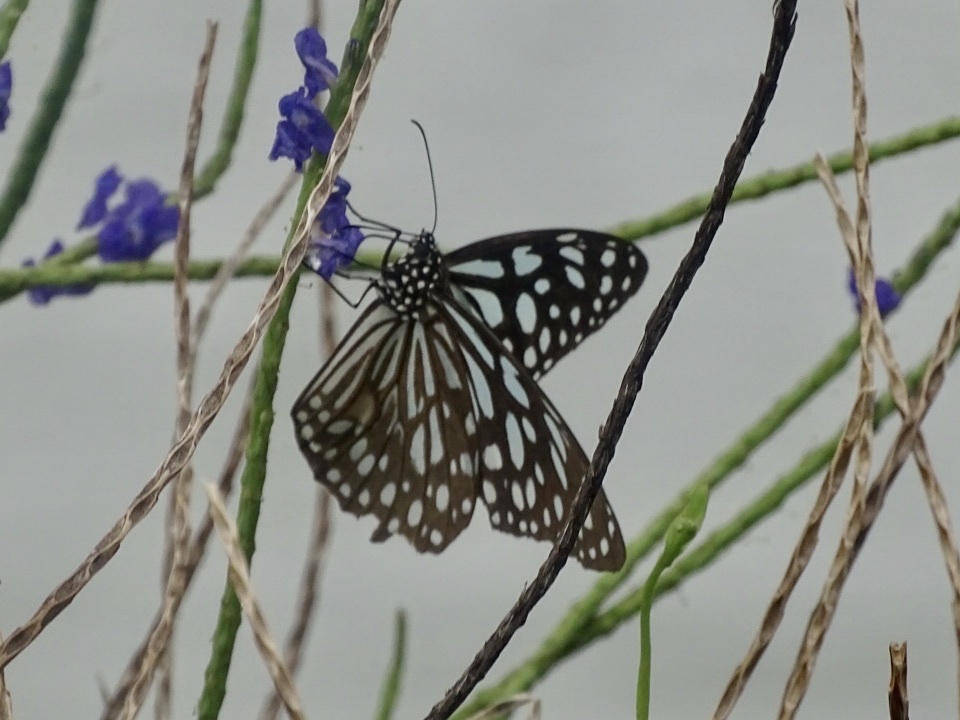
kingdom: Animalia
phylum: Arthropoda
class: Insecta
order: Lepidoptera
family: Nymphalidae
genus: Tirumala
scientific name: Tirumala limniace
